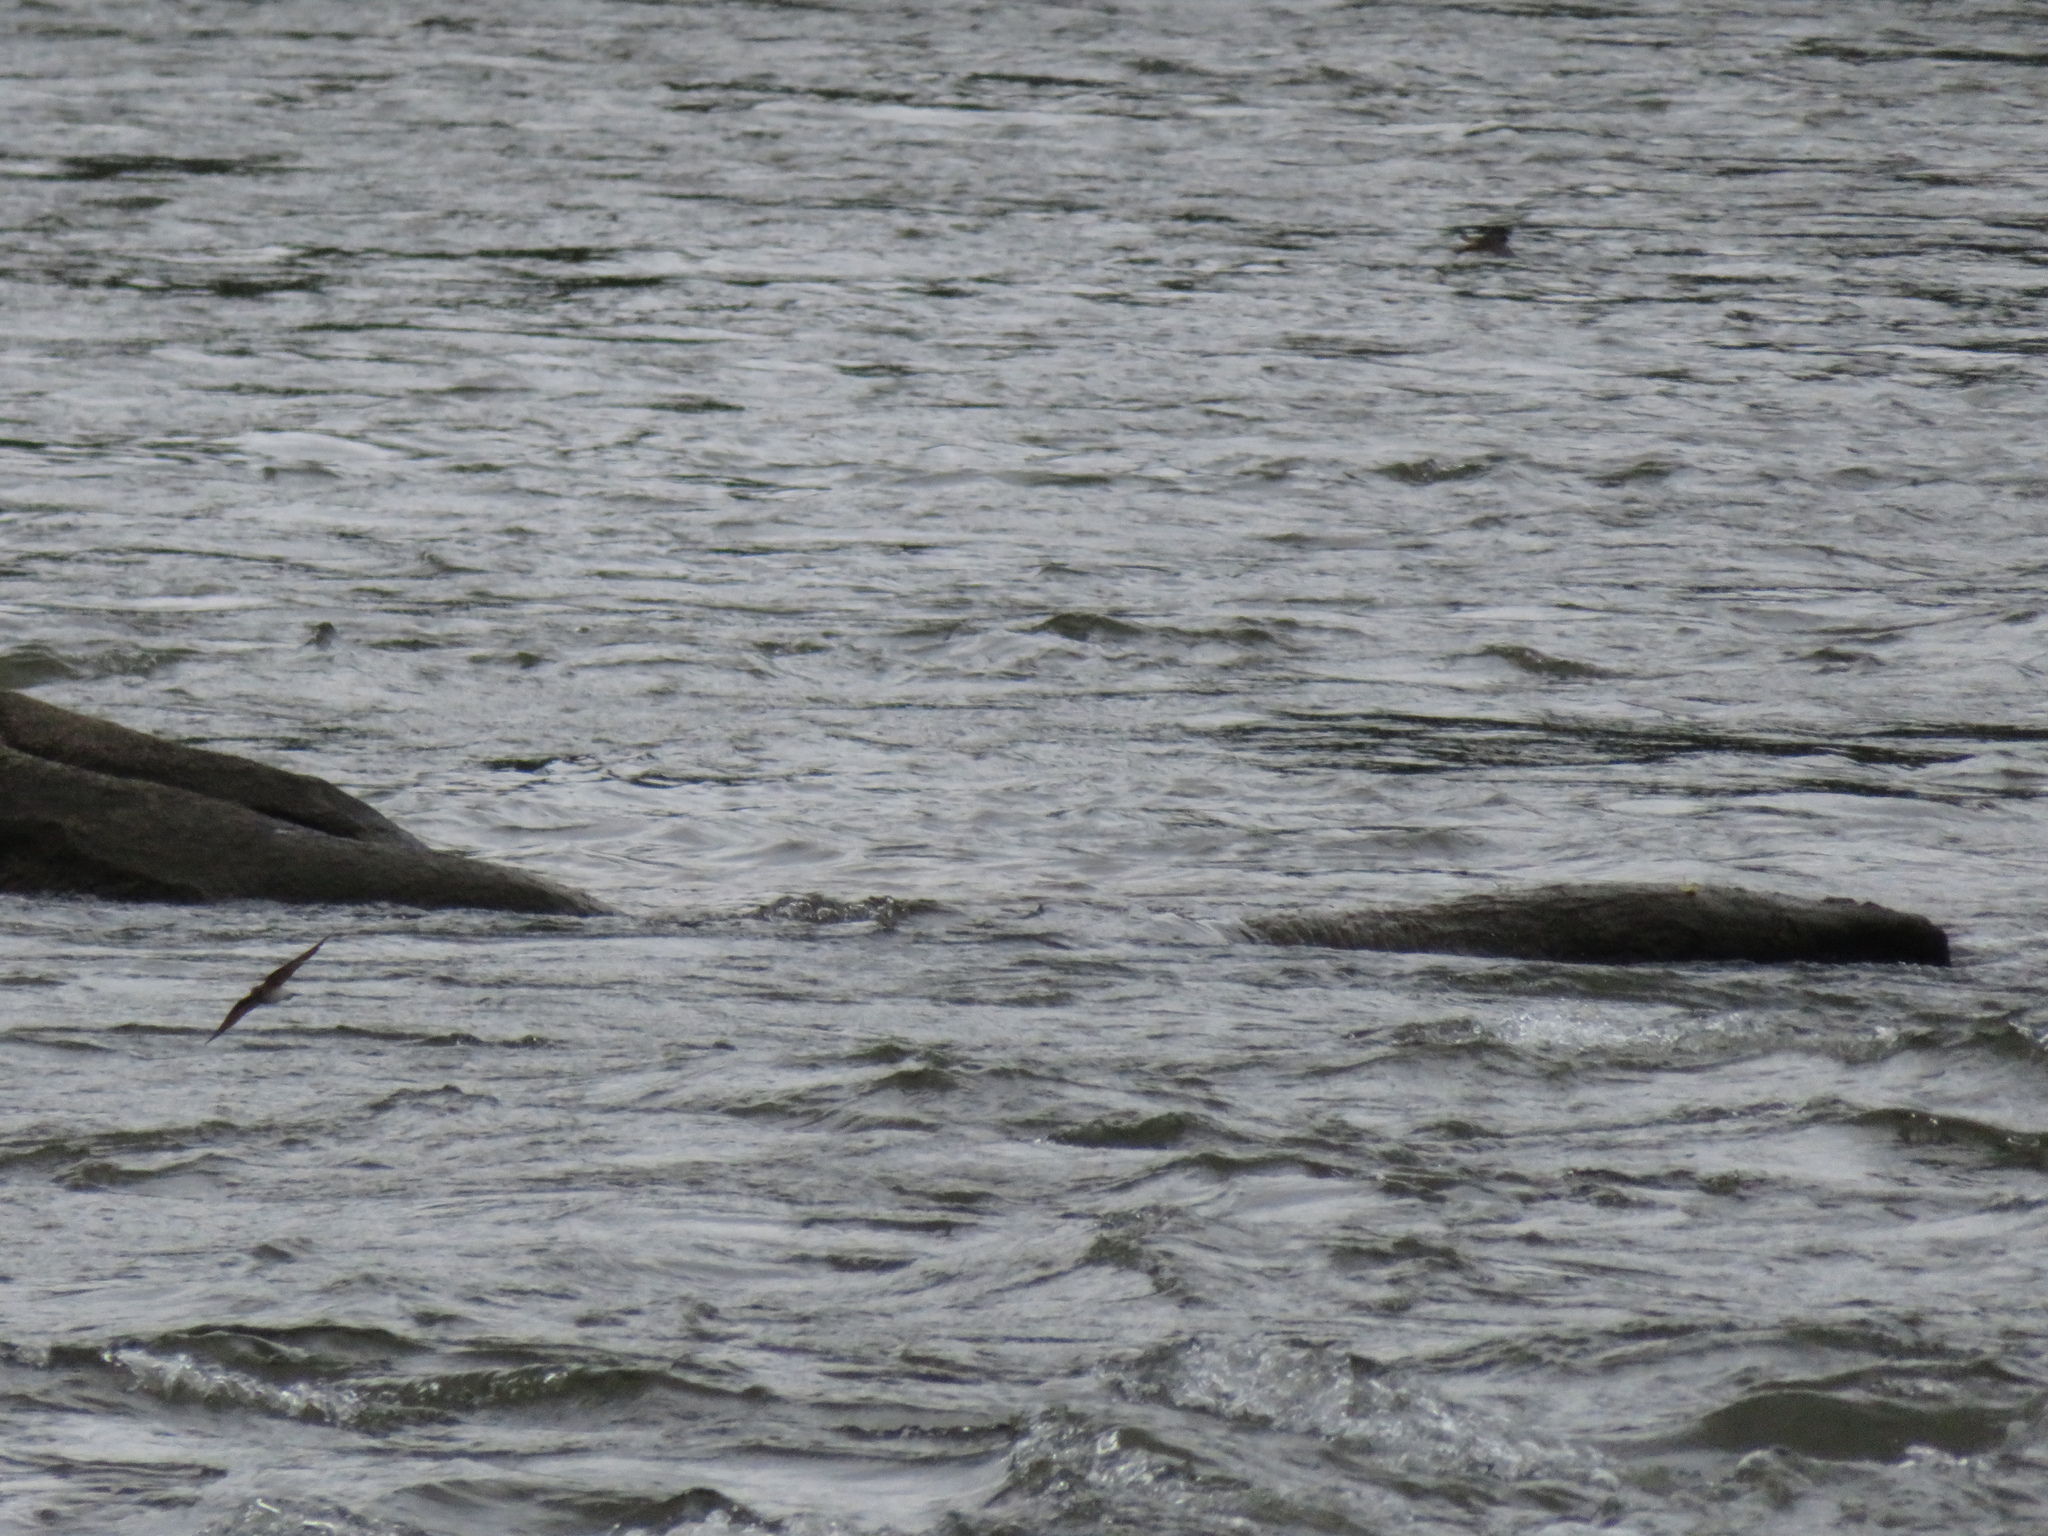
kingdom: Animalia
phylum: Chordata
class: Aves
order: Passeriformes
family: Hirundinidae
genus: Stelgidopteryx
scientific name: Stelgidopteryx serripennis
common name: Northern rough-winged swallow
